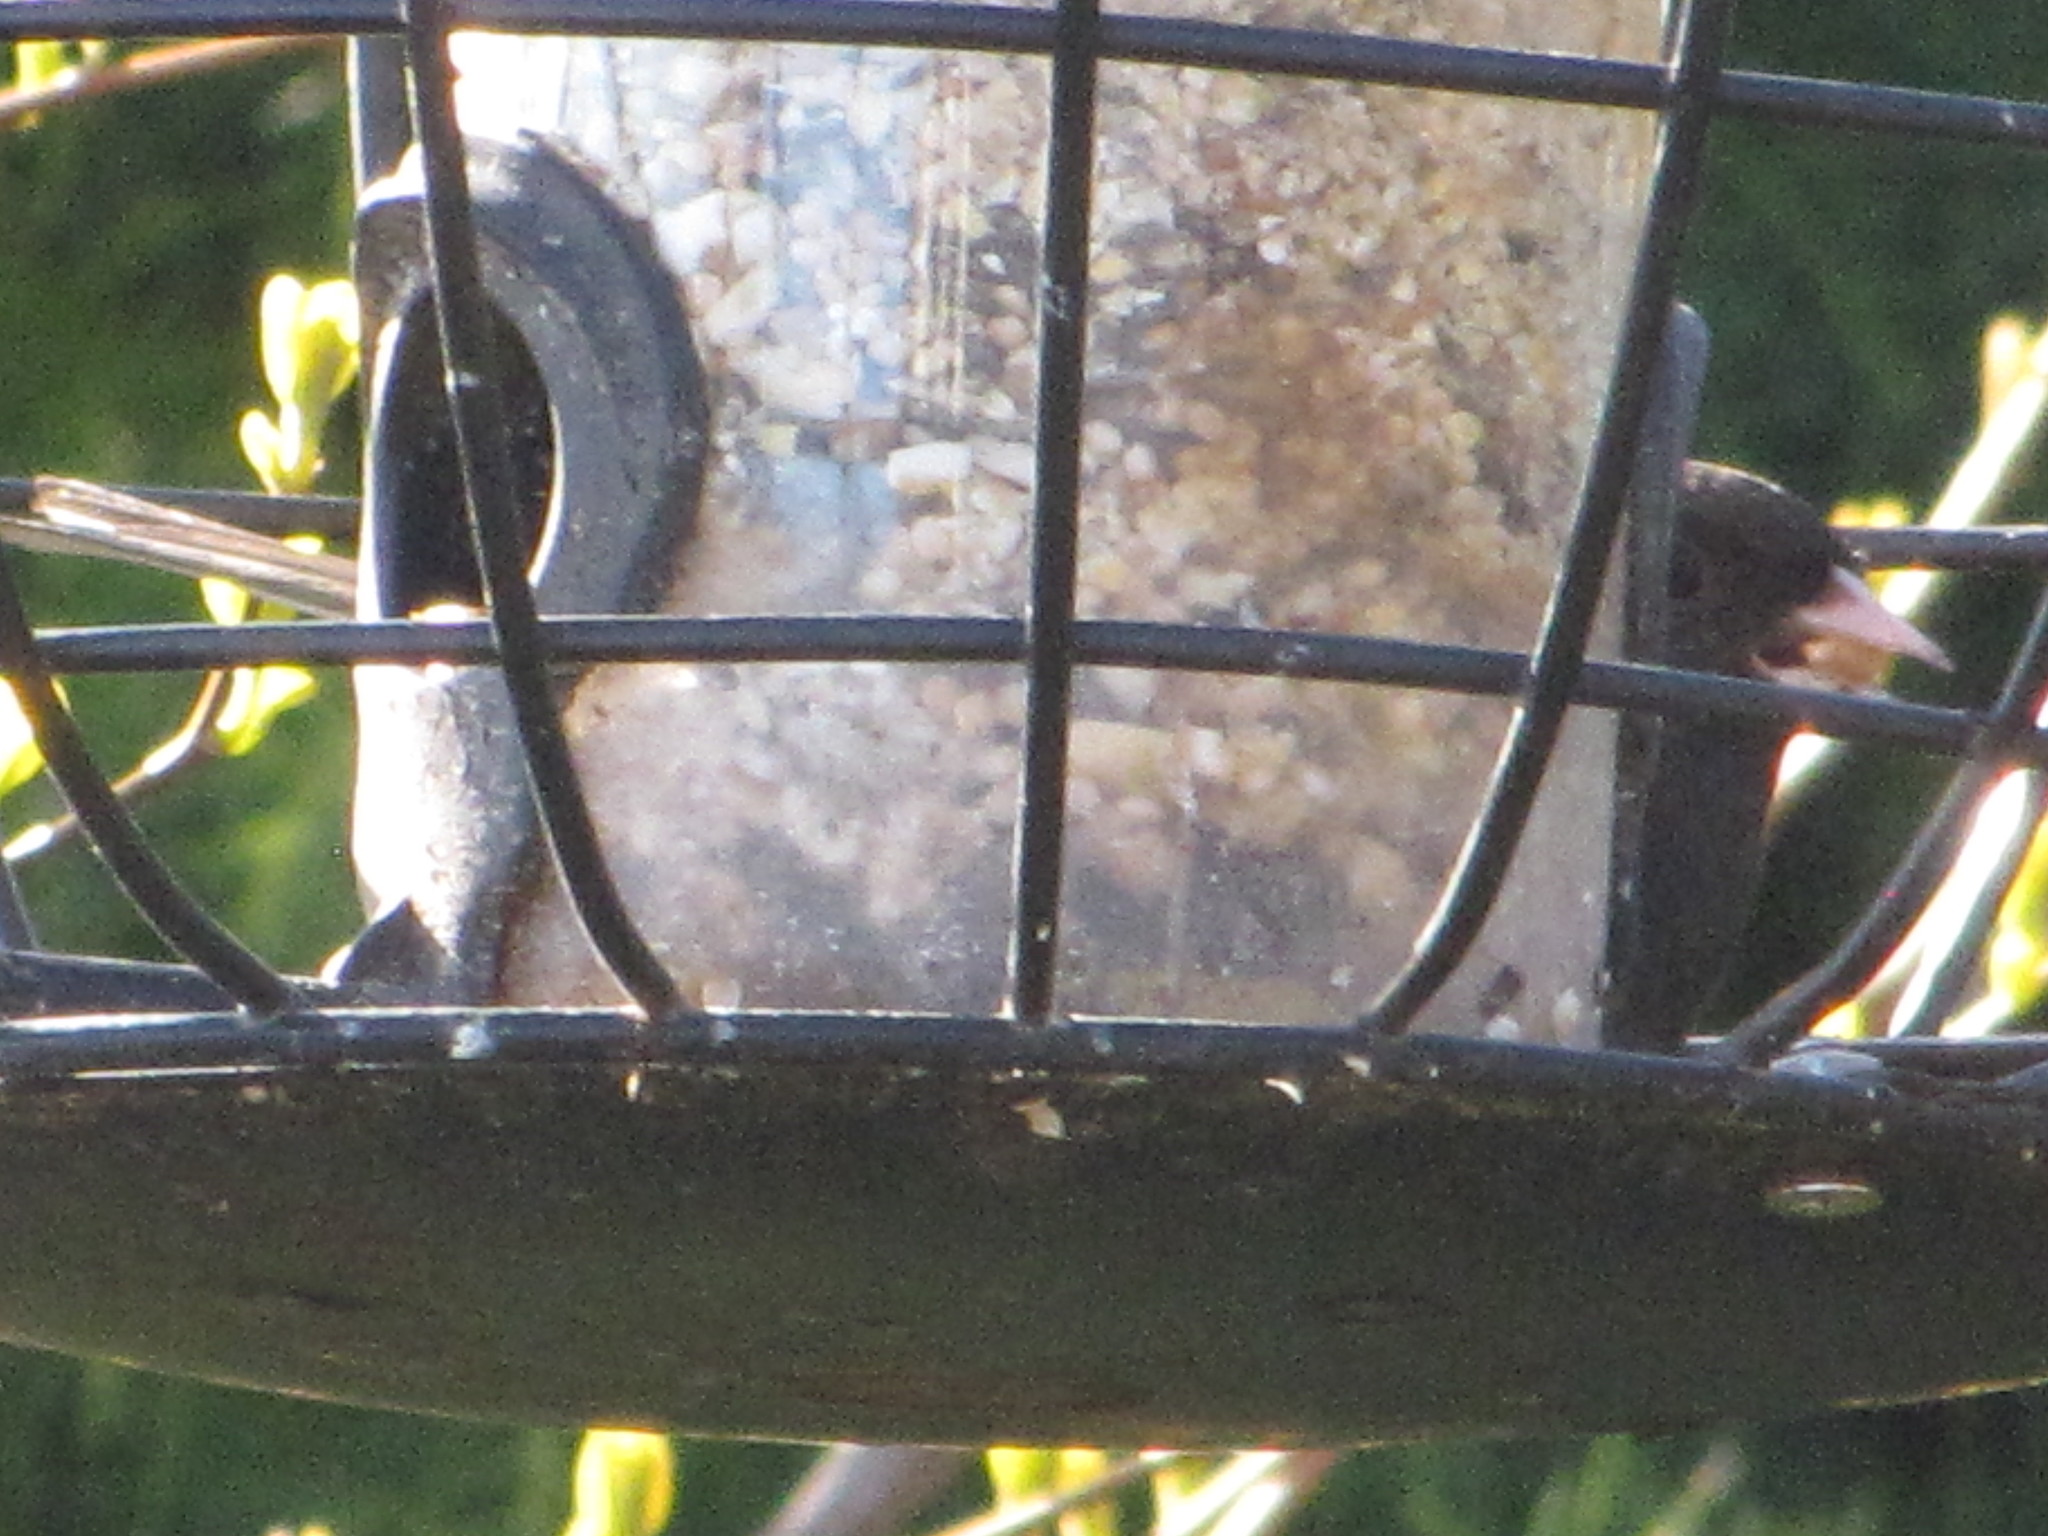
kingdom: Animalia
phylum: Chordata
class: Aves
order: Passeriformes
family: Passerellidae
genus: Junco
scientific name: Junco hyemalis
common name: Dark-eyed junco
